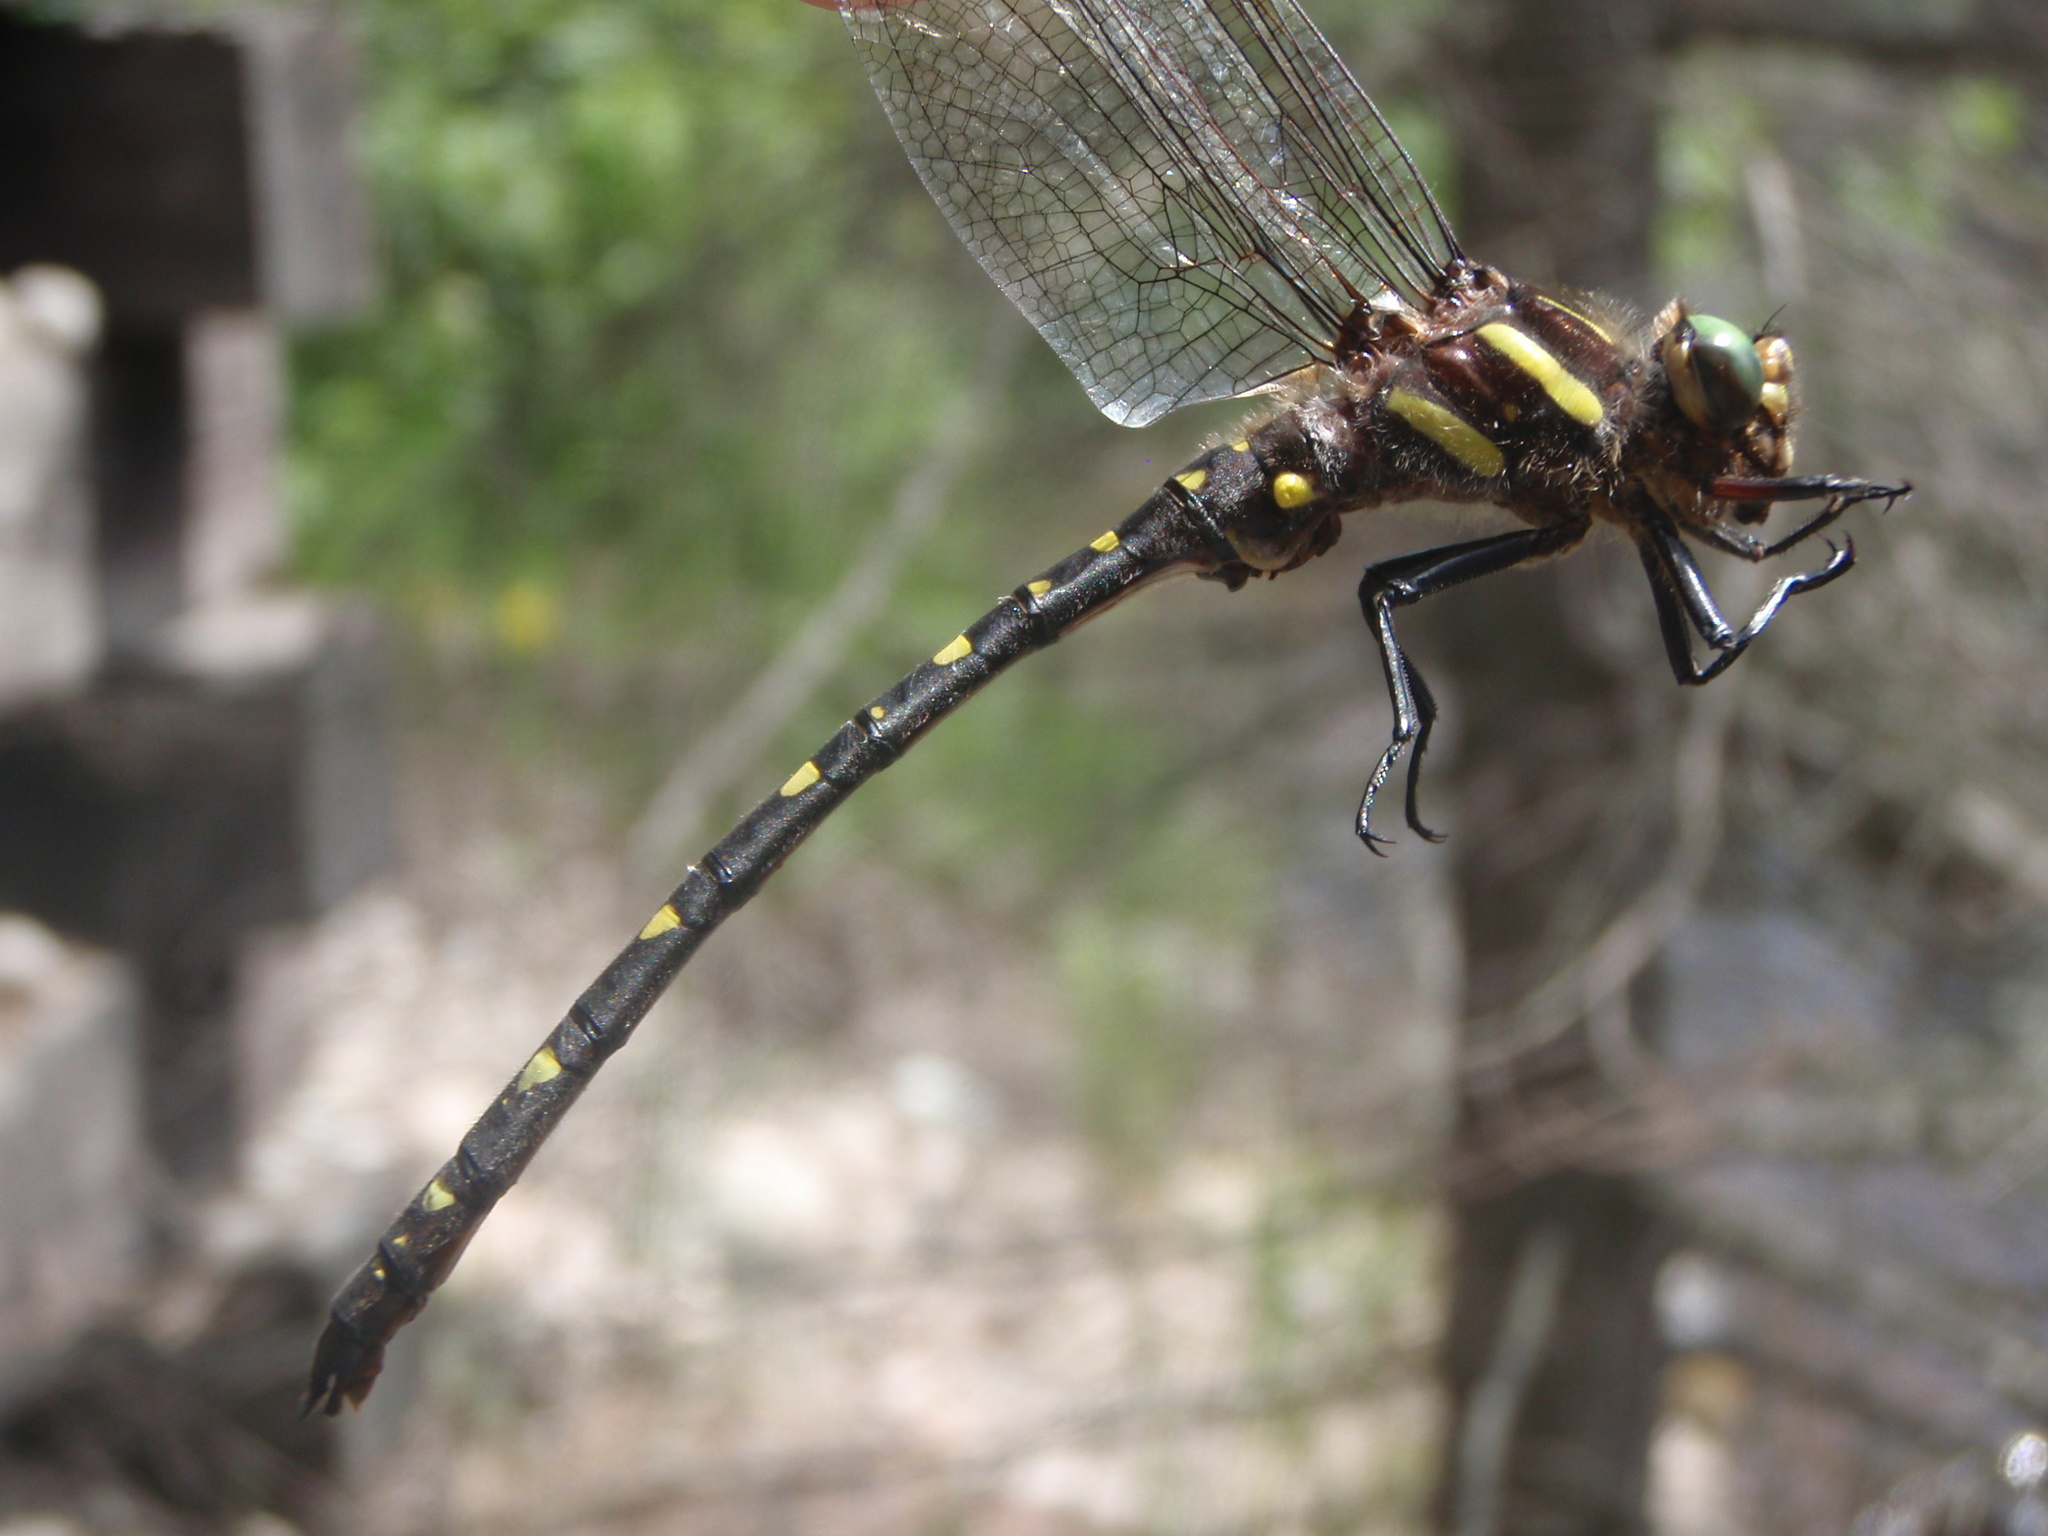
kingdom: Animalia
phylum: Arthropoda
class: Insecta
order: Odonata
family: Cordulegastridae
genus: Cordulegaster
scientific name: Cordulegaster maculata
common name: Twin-spotted spiketail
